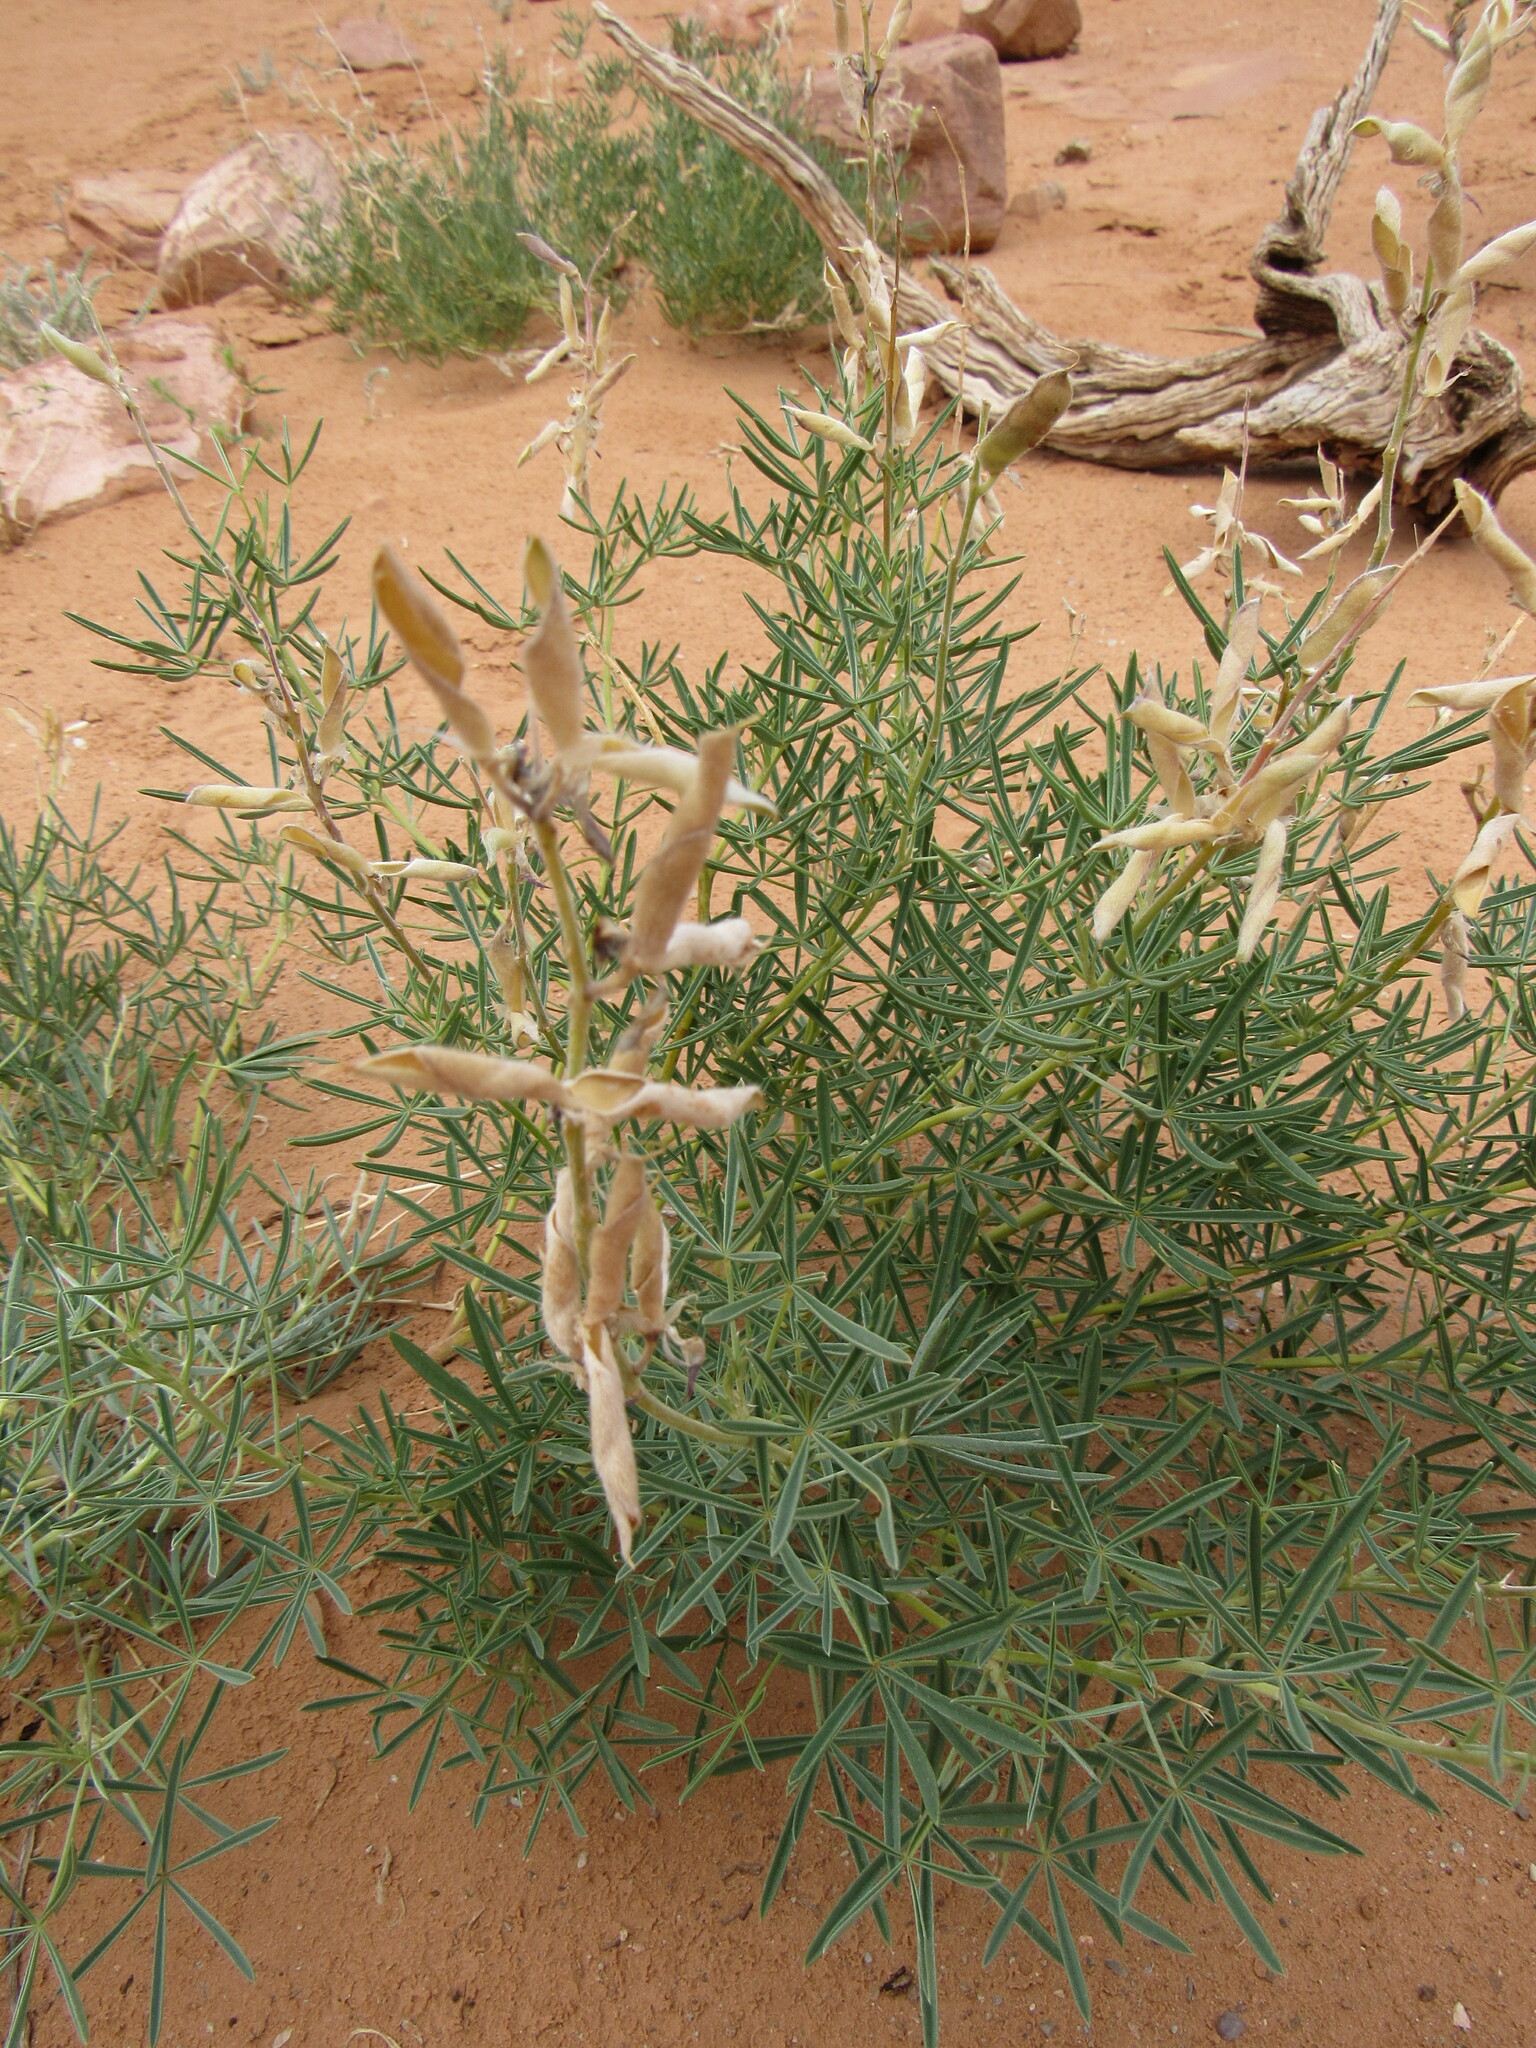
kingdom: Plantae
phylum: Tracheophyta
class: Magnoliopsida
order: Fabales
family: Fabaceae
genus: Lupinus
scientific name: Lupinus argenteus
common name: Silvery lupine
